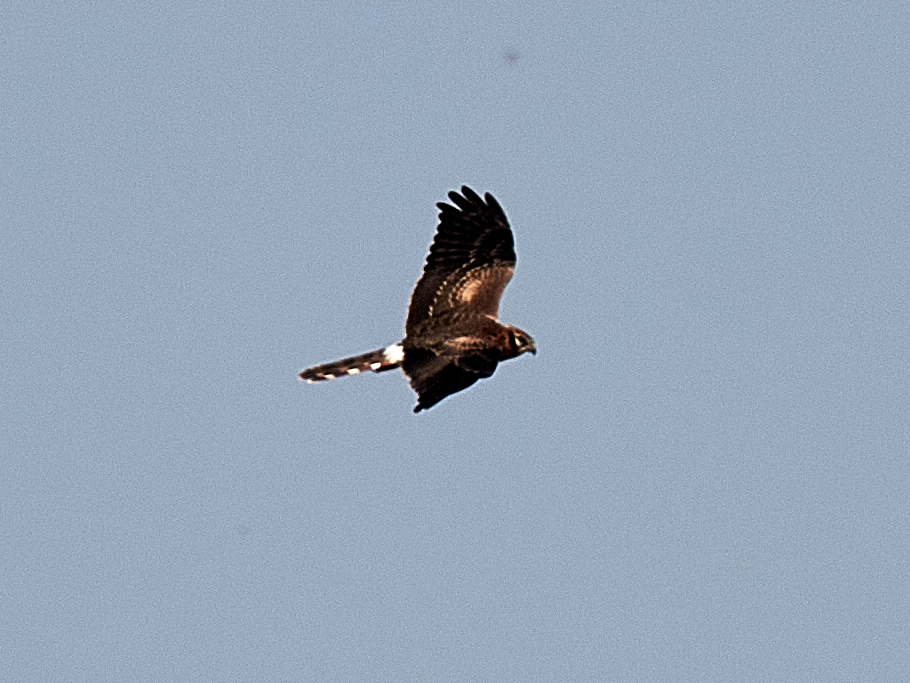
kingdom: Animalia
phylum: Chordata
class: Aves
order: Accipitriformes
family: Accipitridae
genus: Circus
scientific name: Circus pygargus
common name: Montagu's harrier
